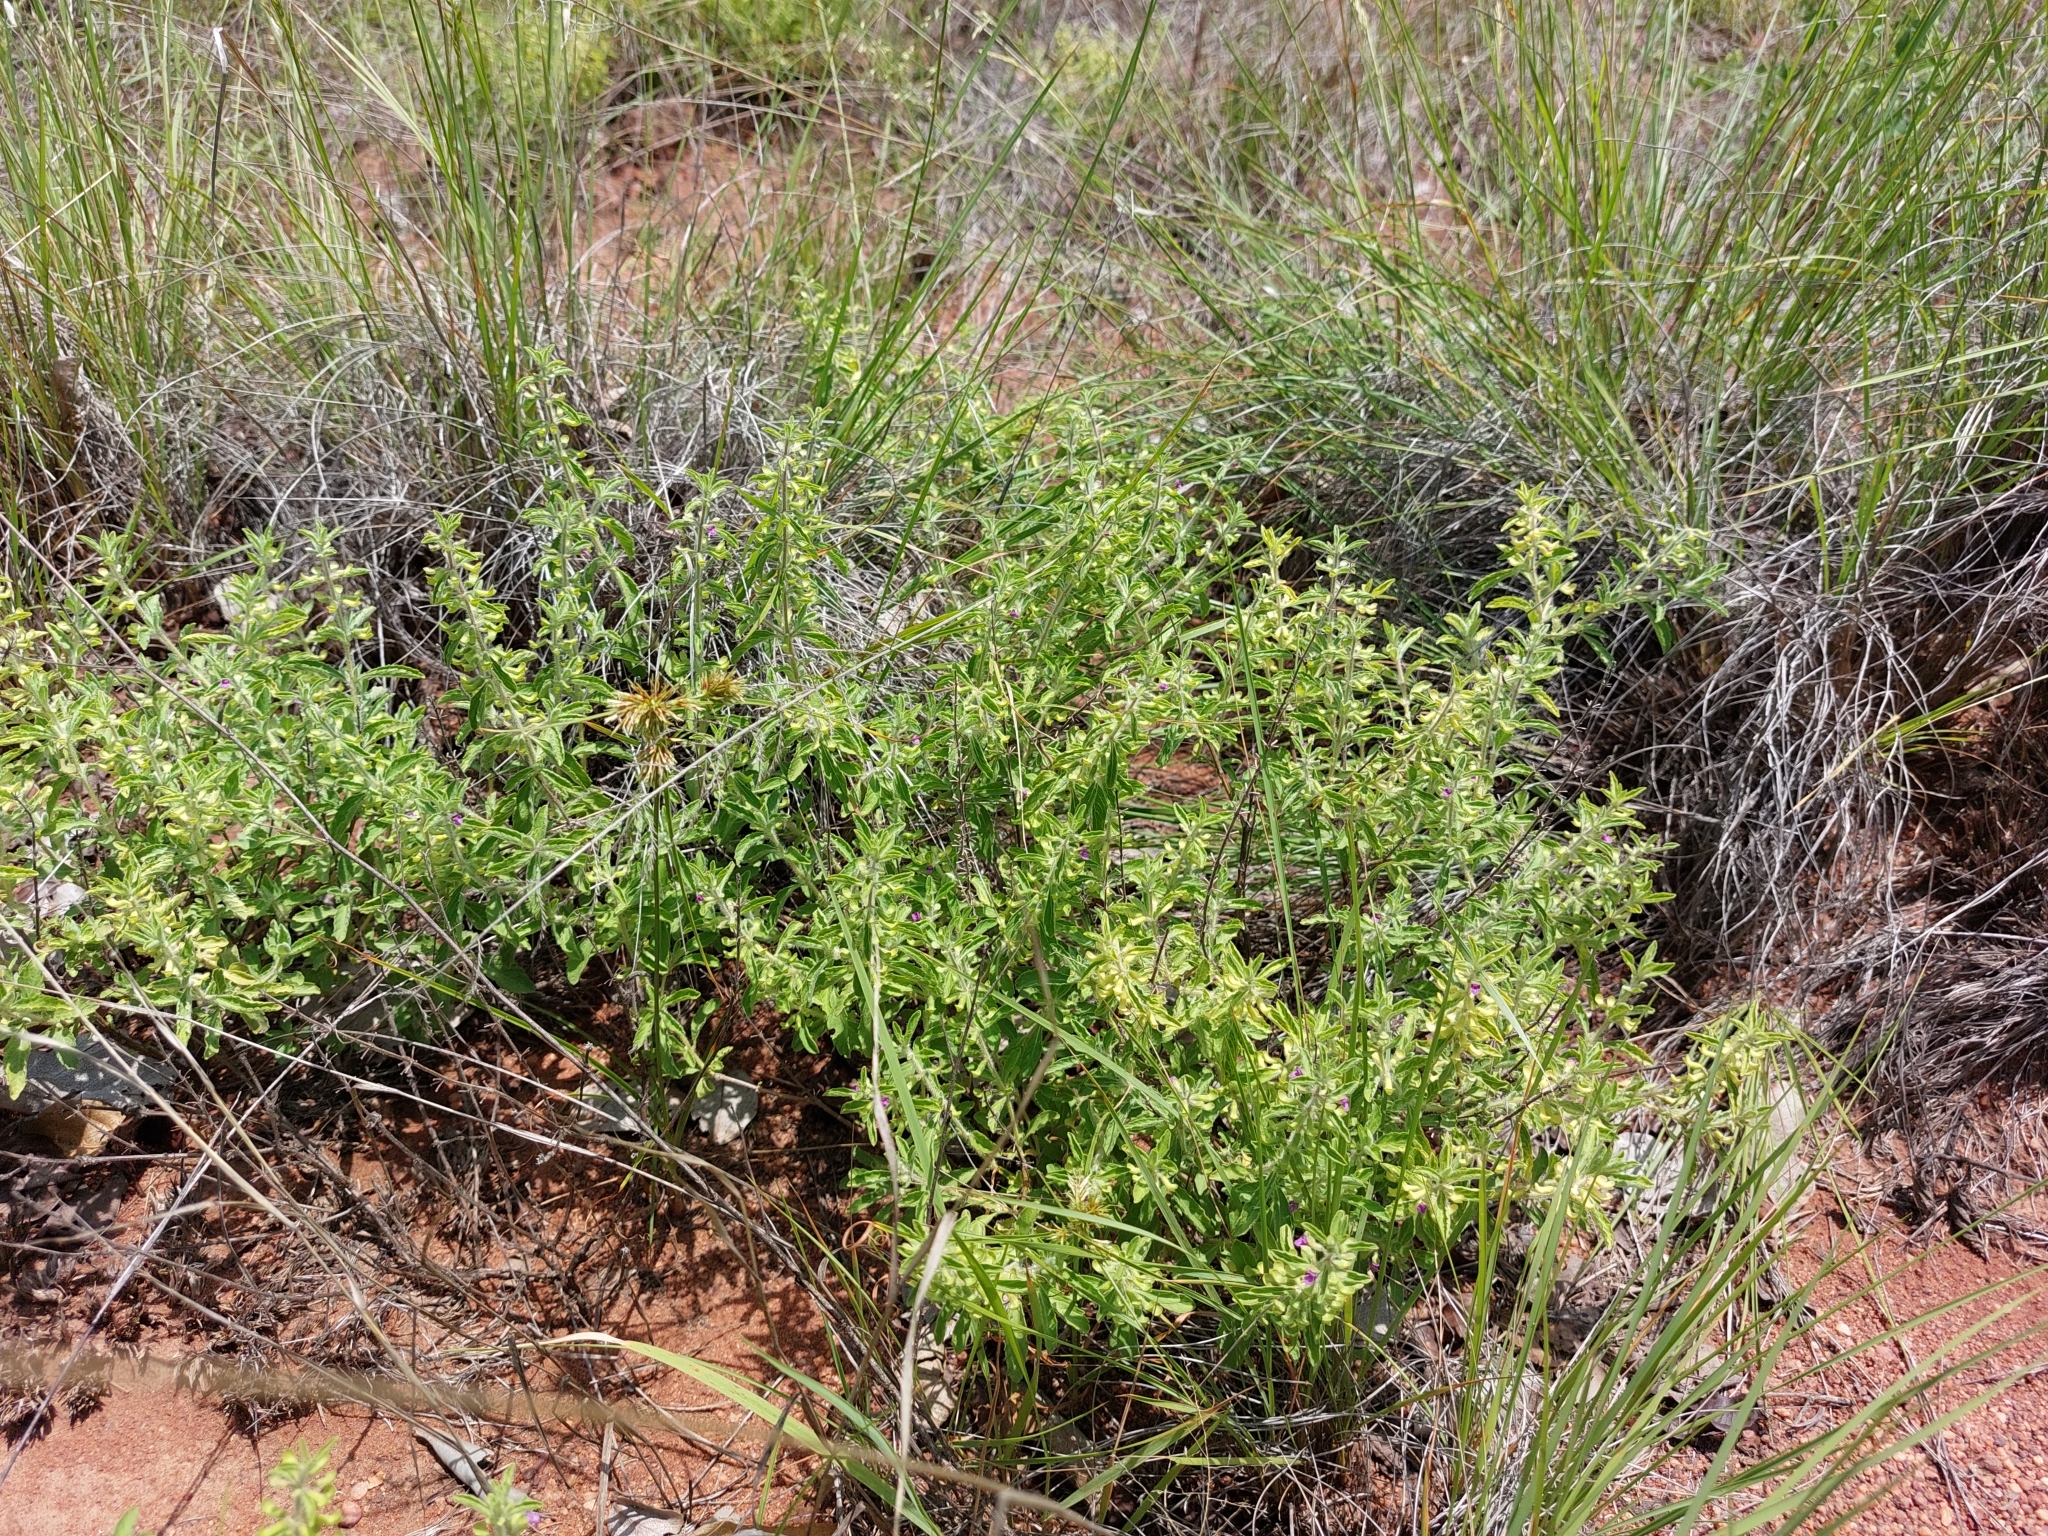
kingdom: Plantae
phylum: Tracheophyta
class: Magnoliopsida
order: Lamiales
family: Lamiaceae
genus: Endostemon
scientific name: Endostemon tereticaulis
